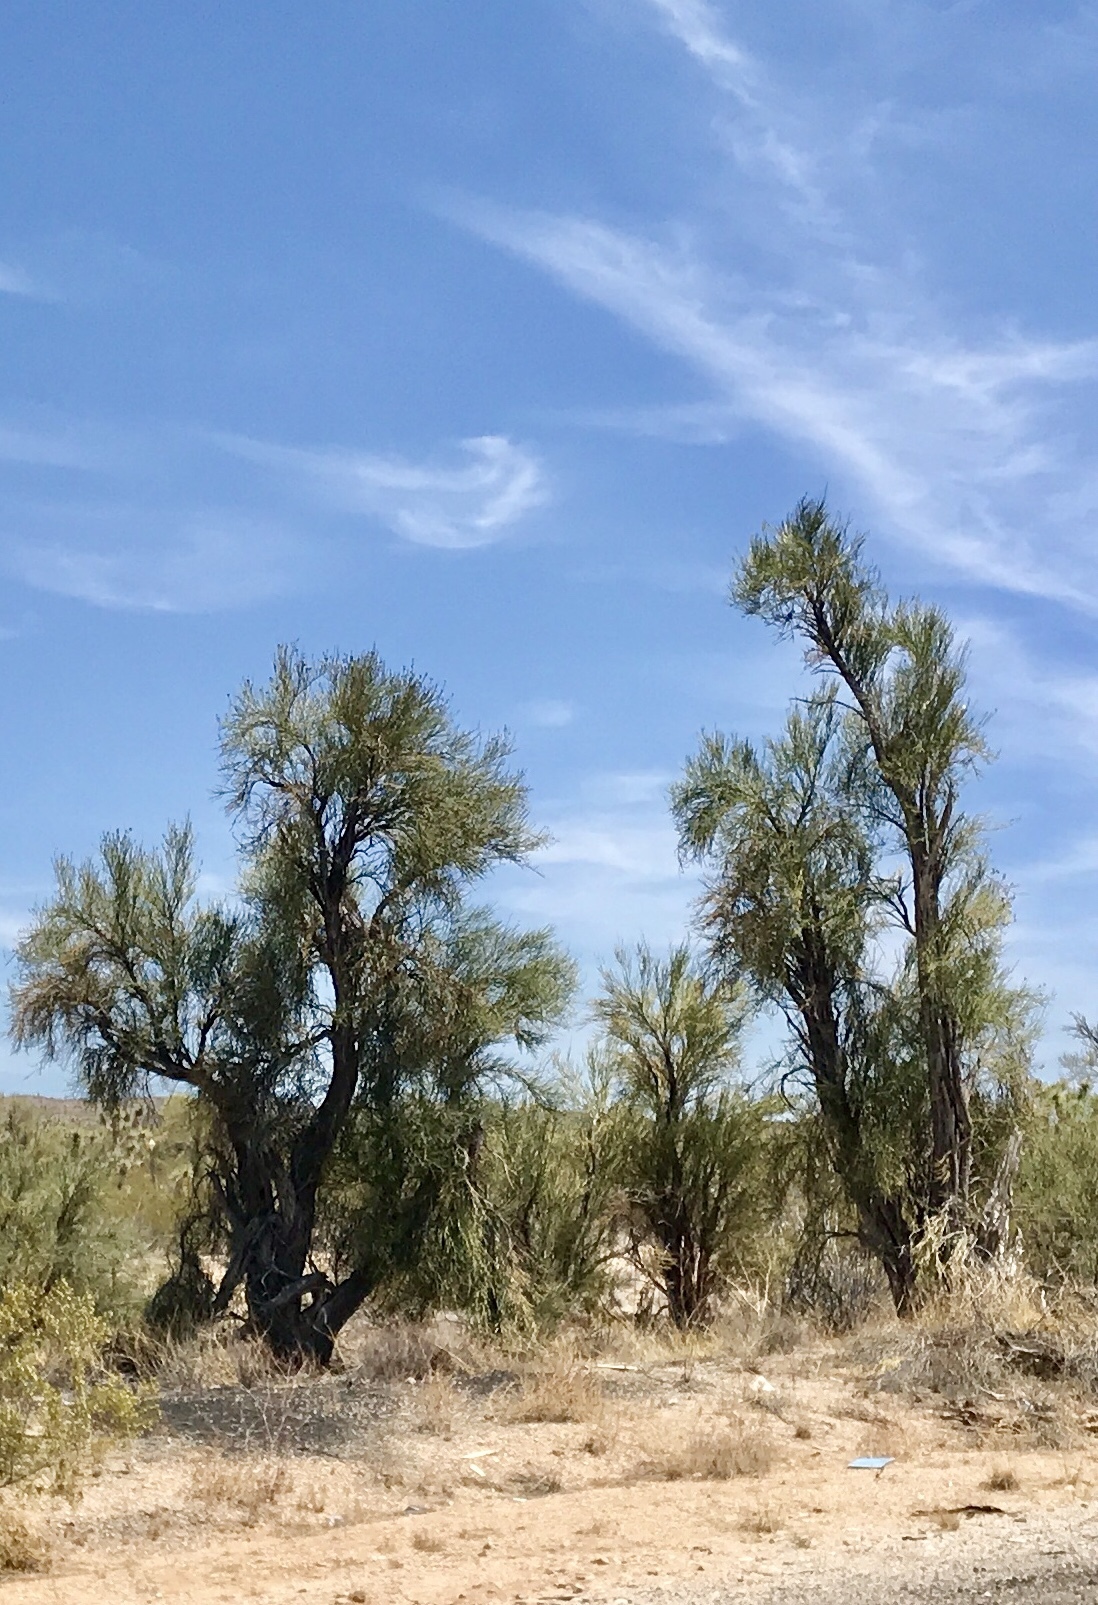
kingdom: Plantae
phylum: Tracheophyta
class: Magnoliopsida
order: Celastrales
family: Celastraceae
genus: Canotia
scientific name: Canotia holacantha
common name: Crucifixion thorns
